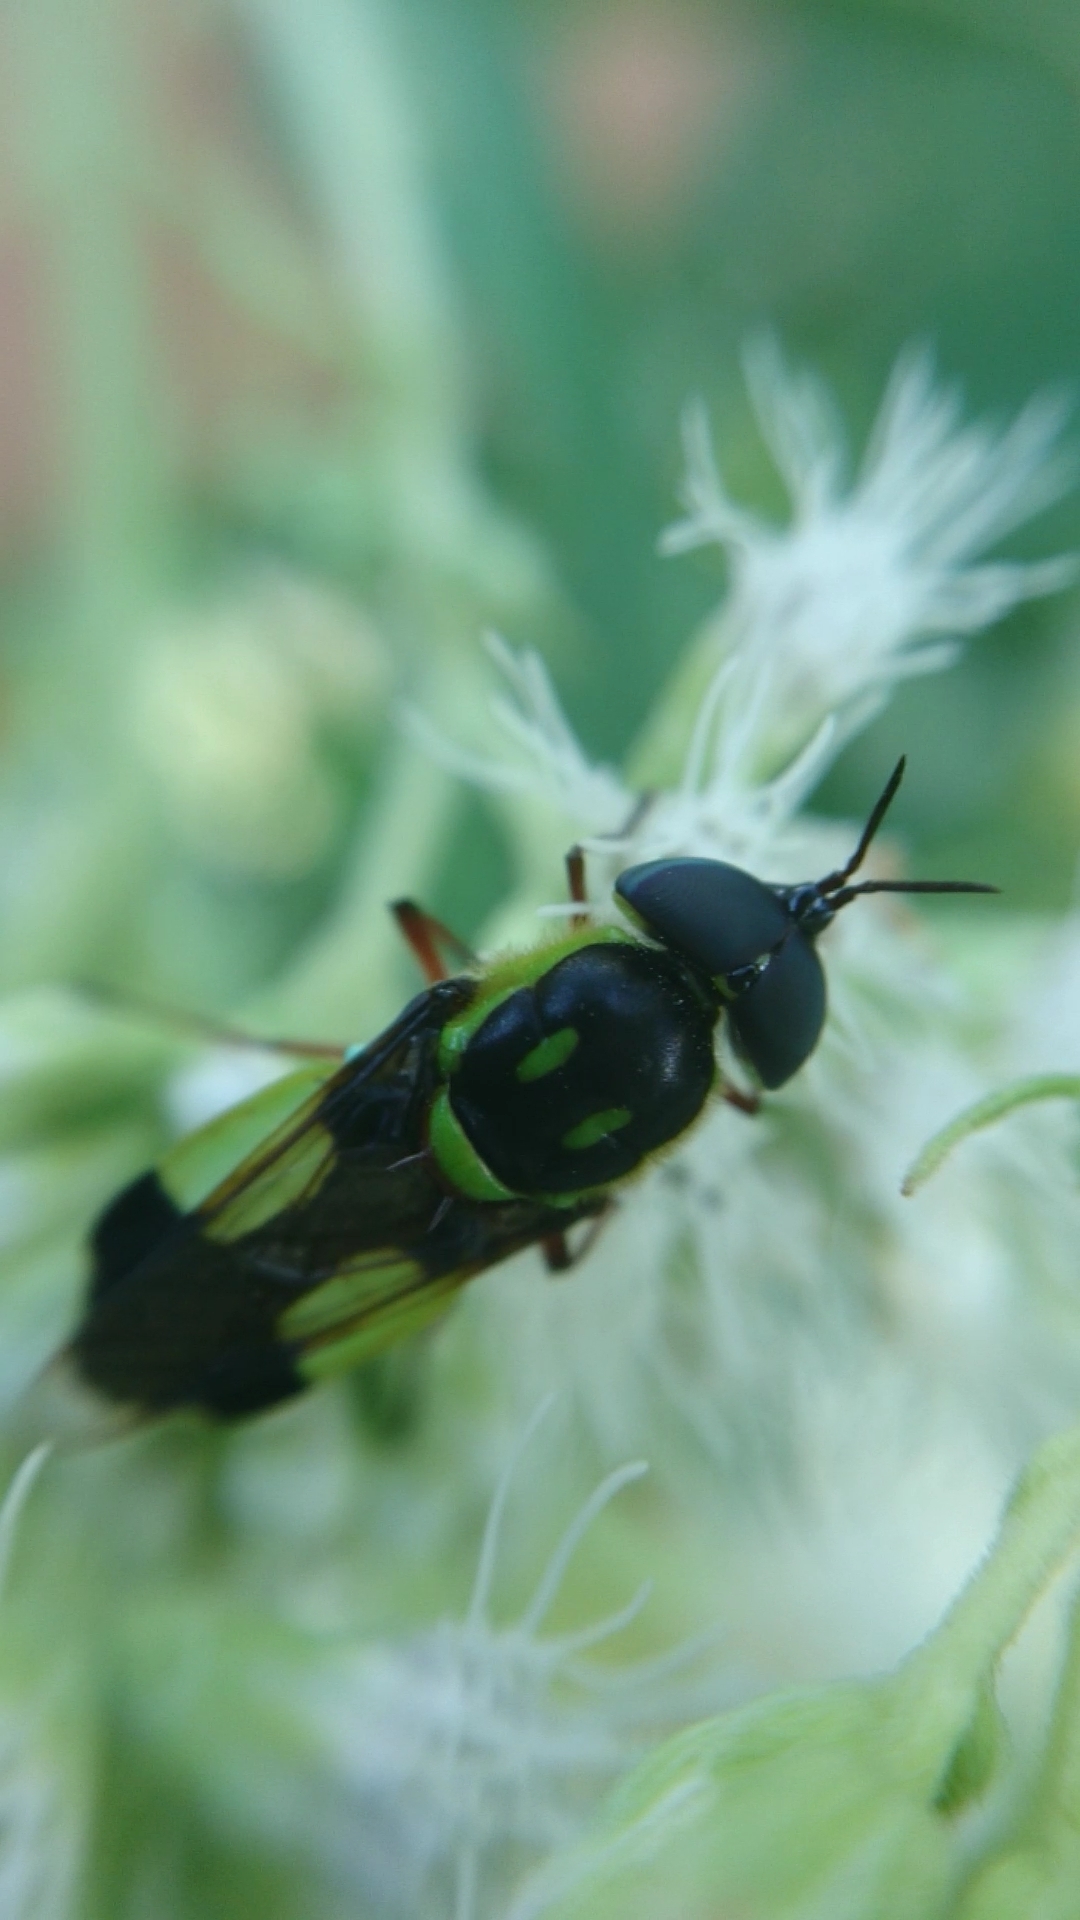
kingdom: Animalia
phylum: Arthropoda
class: Insecta
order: Diptera
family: Stratiomyidae
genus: Hedriodiscus
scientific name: Hedriodiscus pulcher
